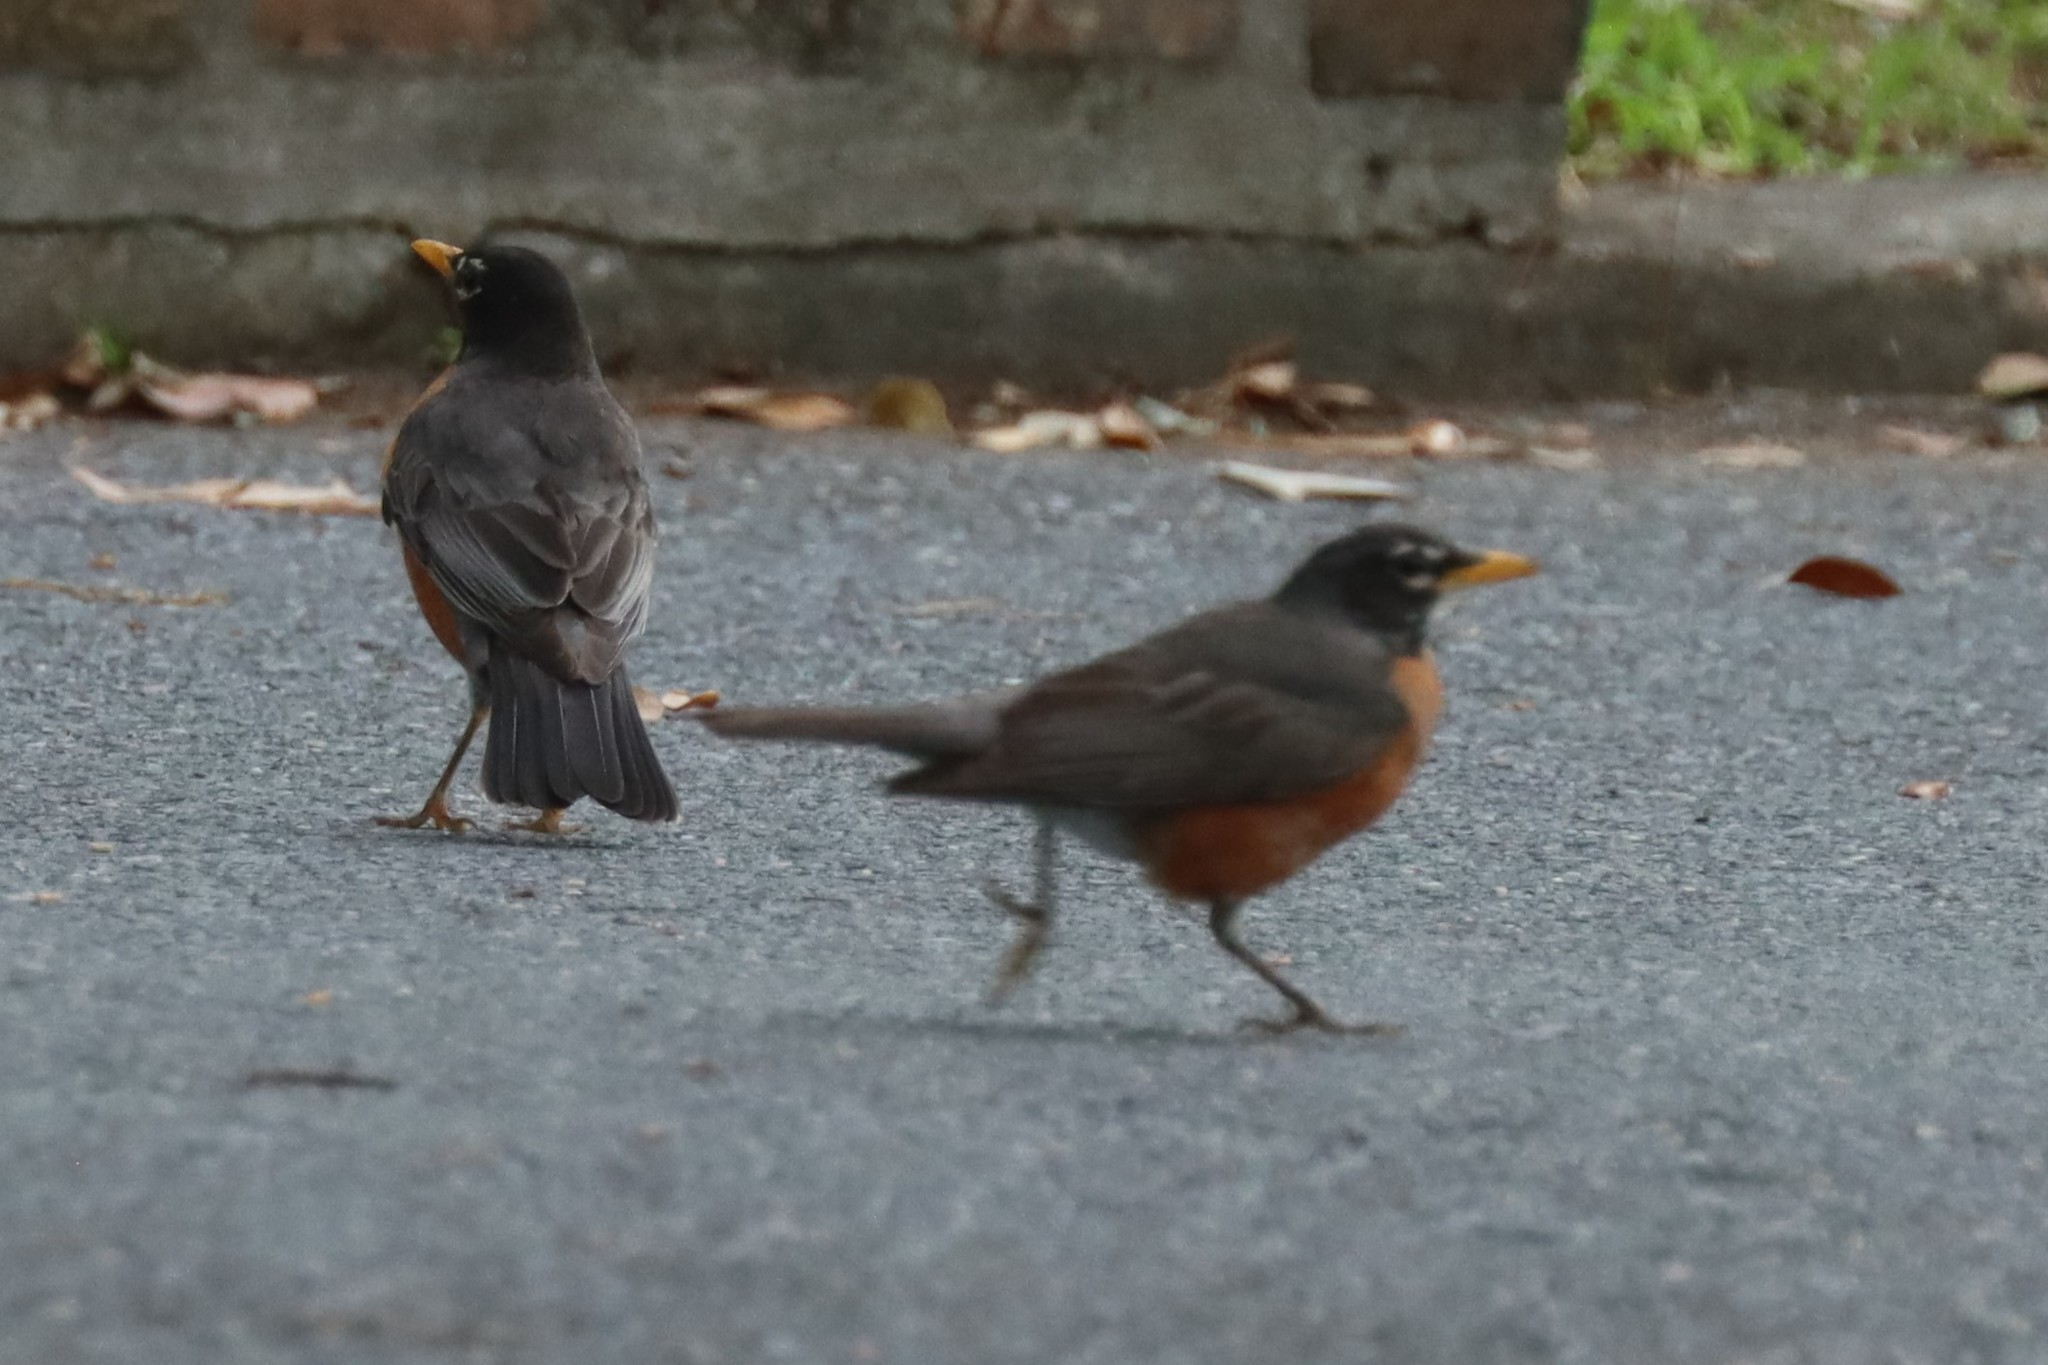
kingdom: Animalia
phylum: Chordata
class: Aves
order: Passeriformes
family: Turdidae
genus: Turdus
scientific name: Turdus migratorius
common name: American robin
